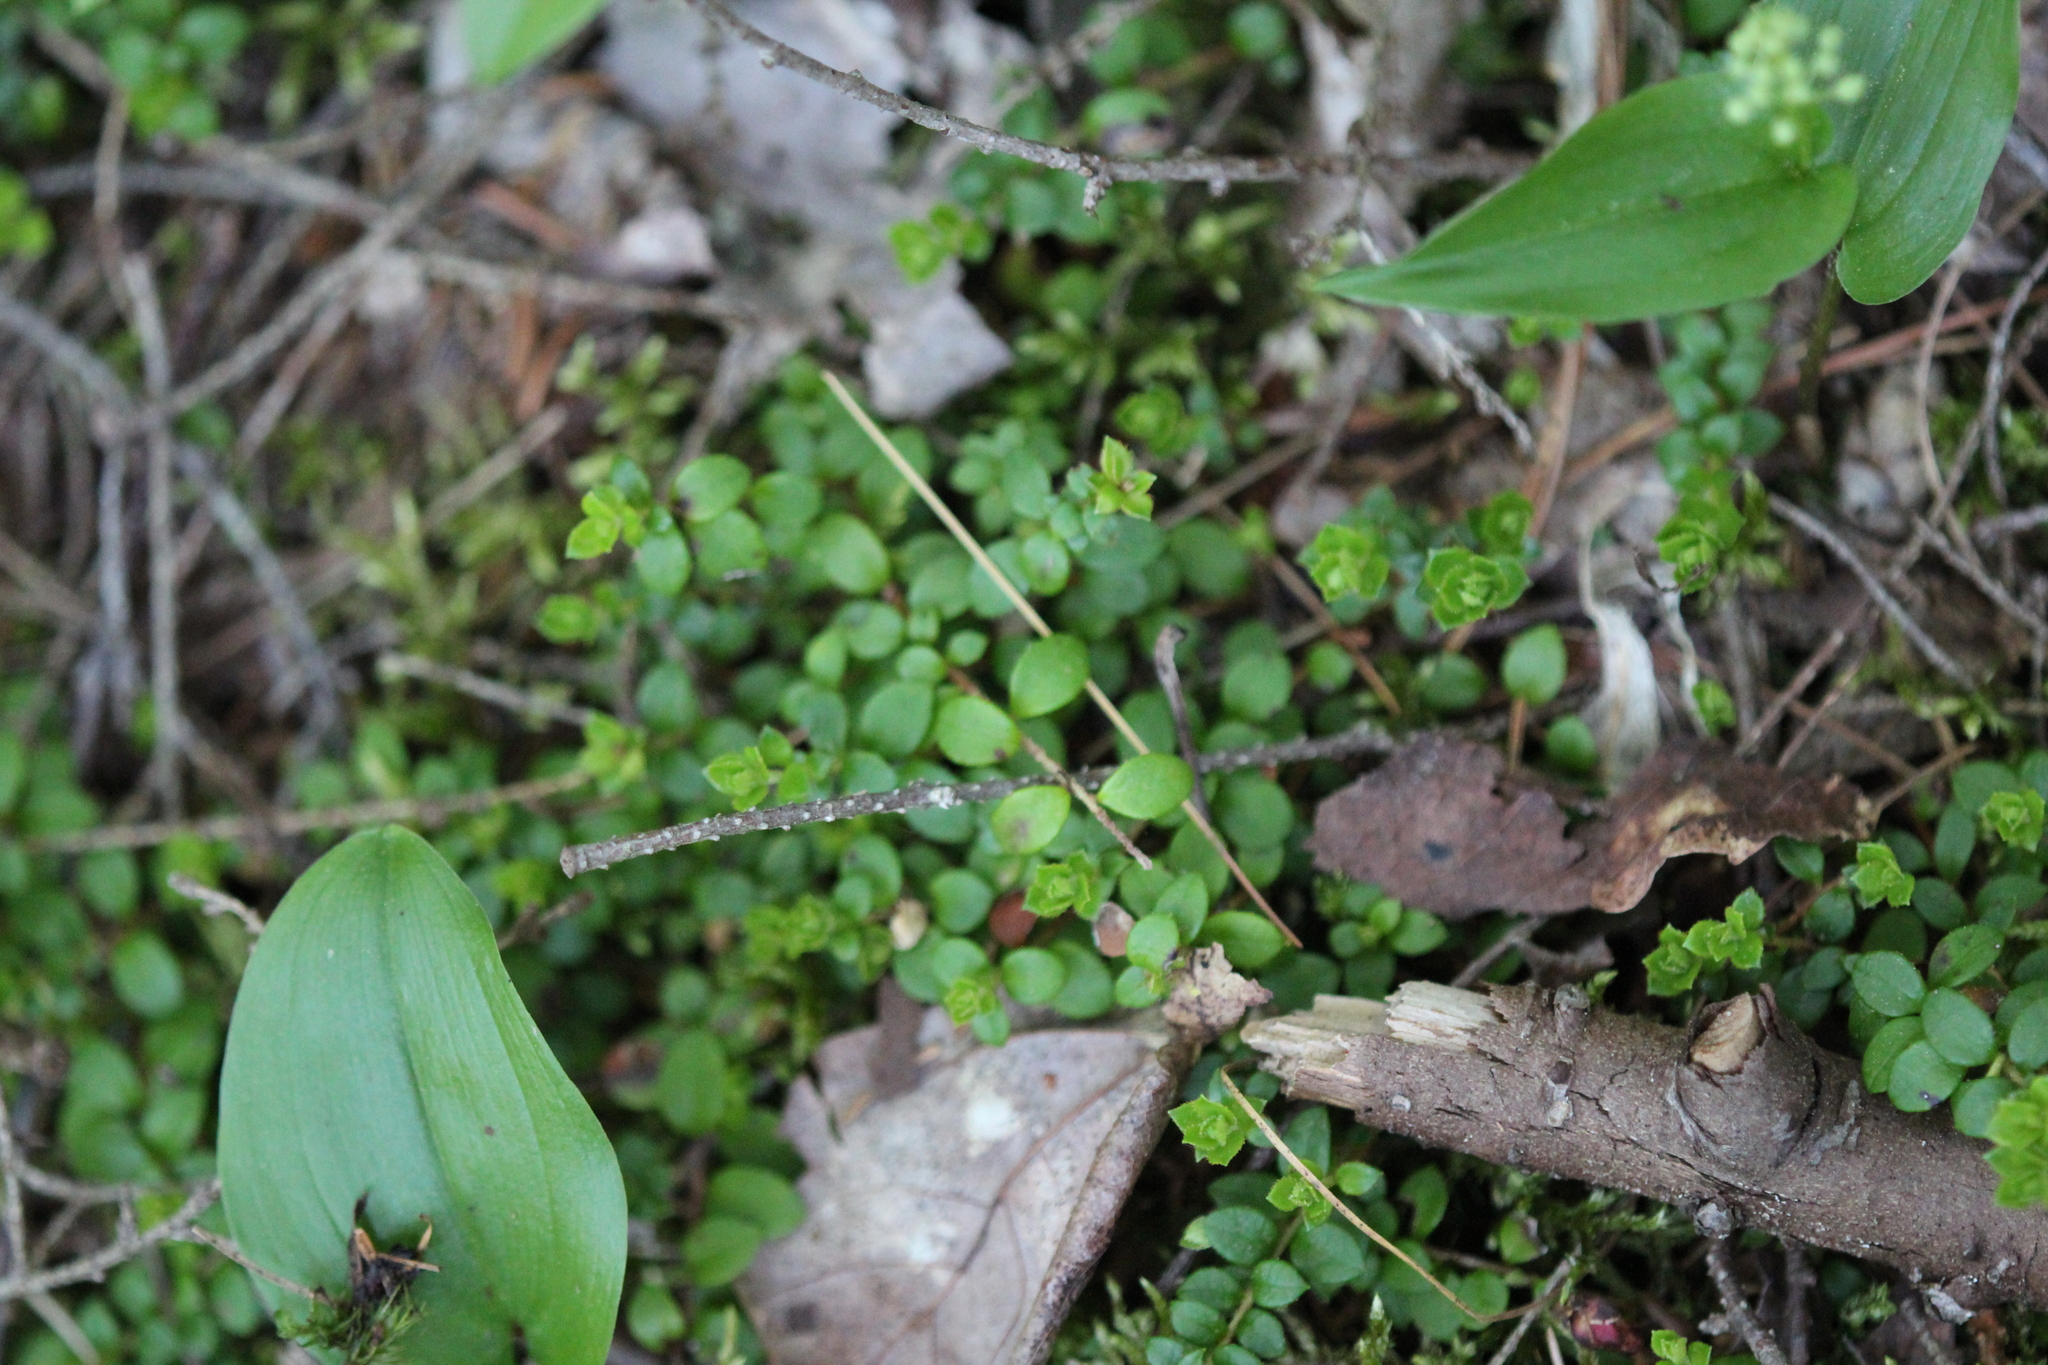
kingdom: Plantae
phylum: Tracheophyta
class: Magnoliopsida
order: Ericales
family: Ericaceae
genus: Gaultheria
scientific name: Gaultheria hispidula
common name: Cancer wintergreen
